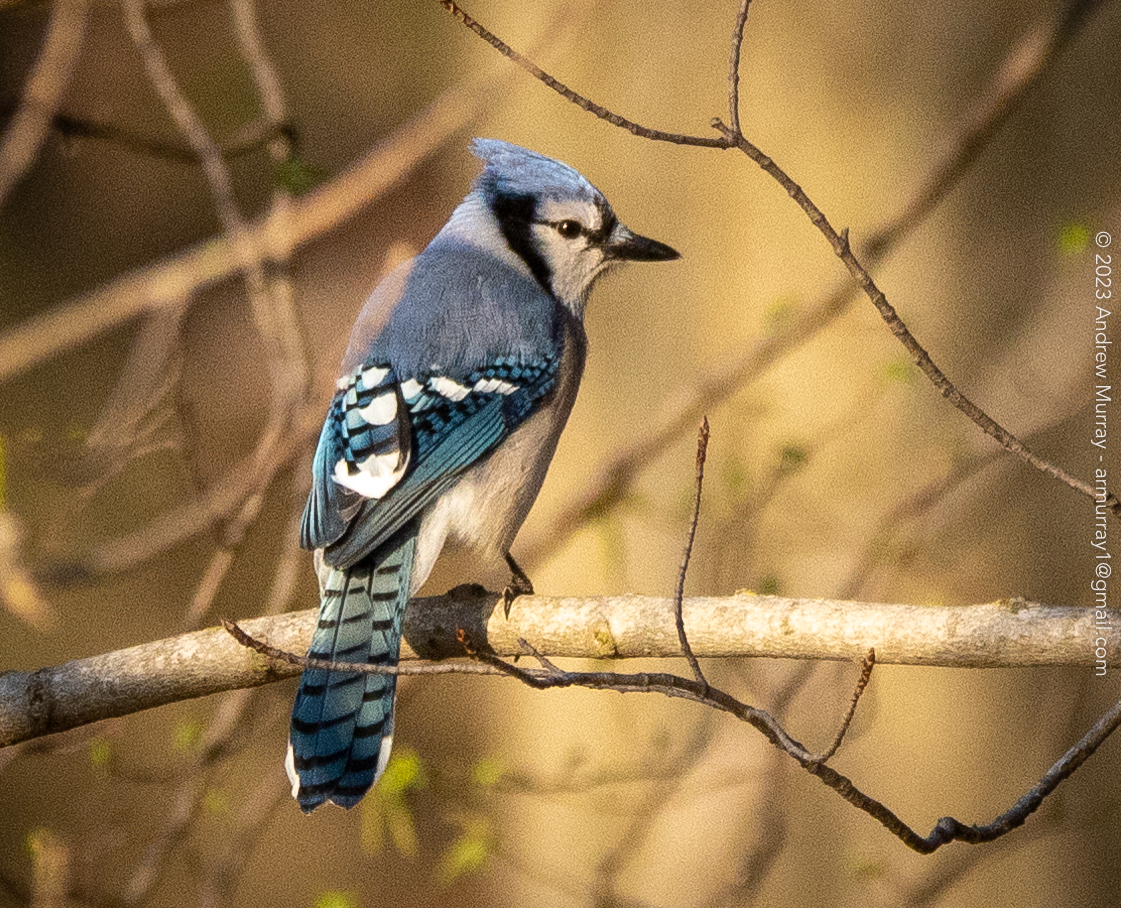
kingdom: Animalia
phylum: Chordata
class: Aves
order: Passeriformes
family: Corvidae
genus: Cyanocitta
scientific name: Cyanocitta cristata
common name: Blue jay
